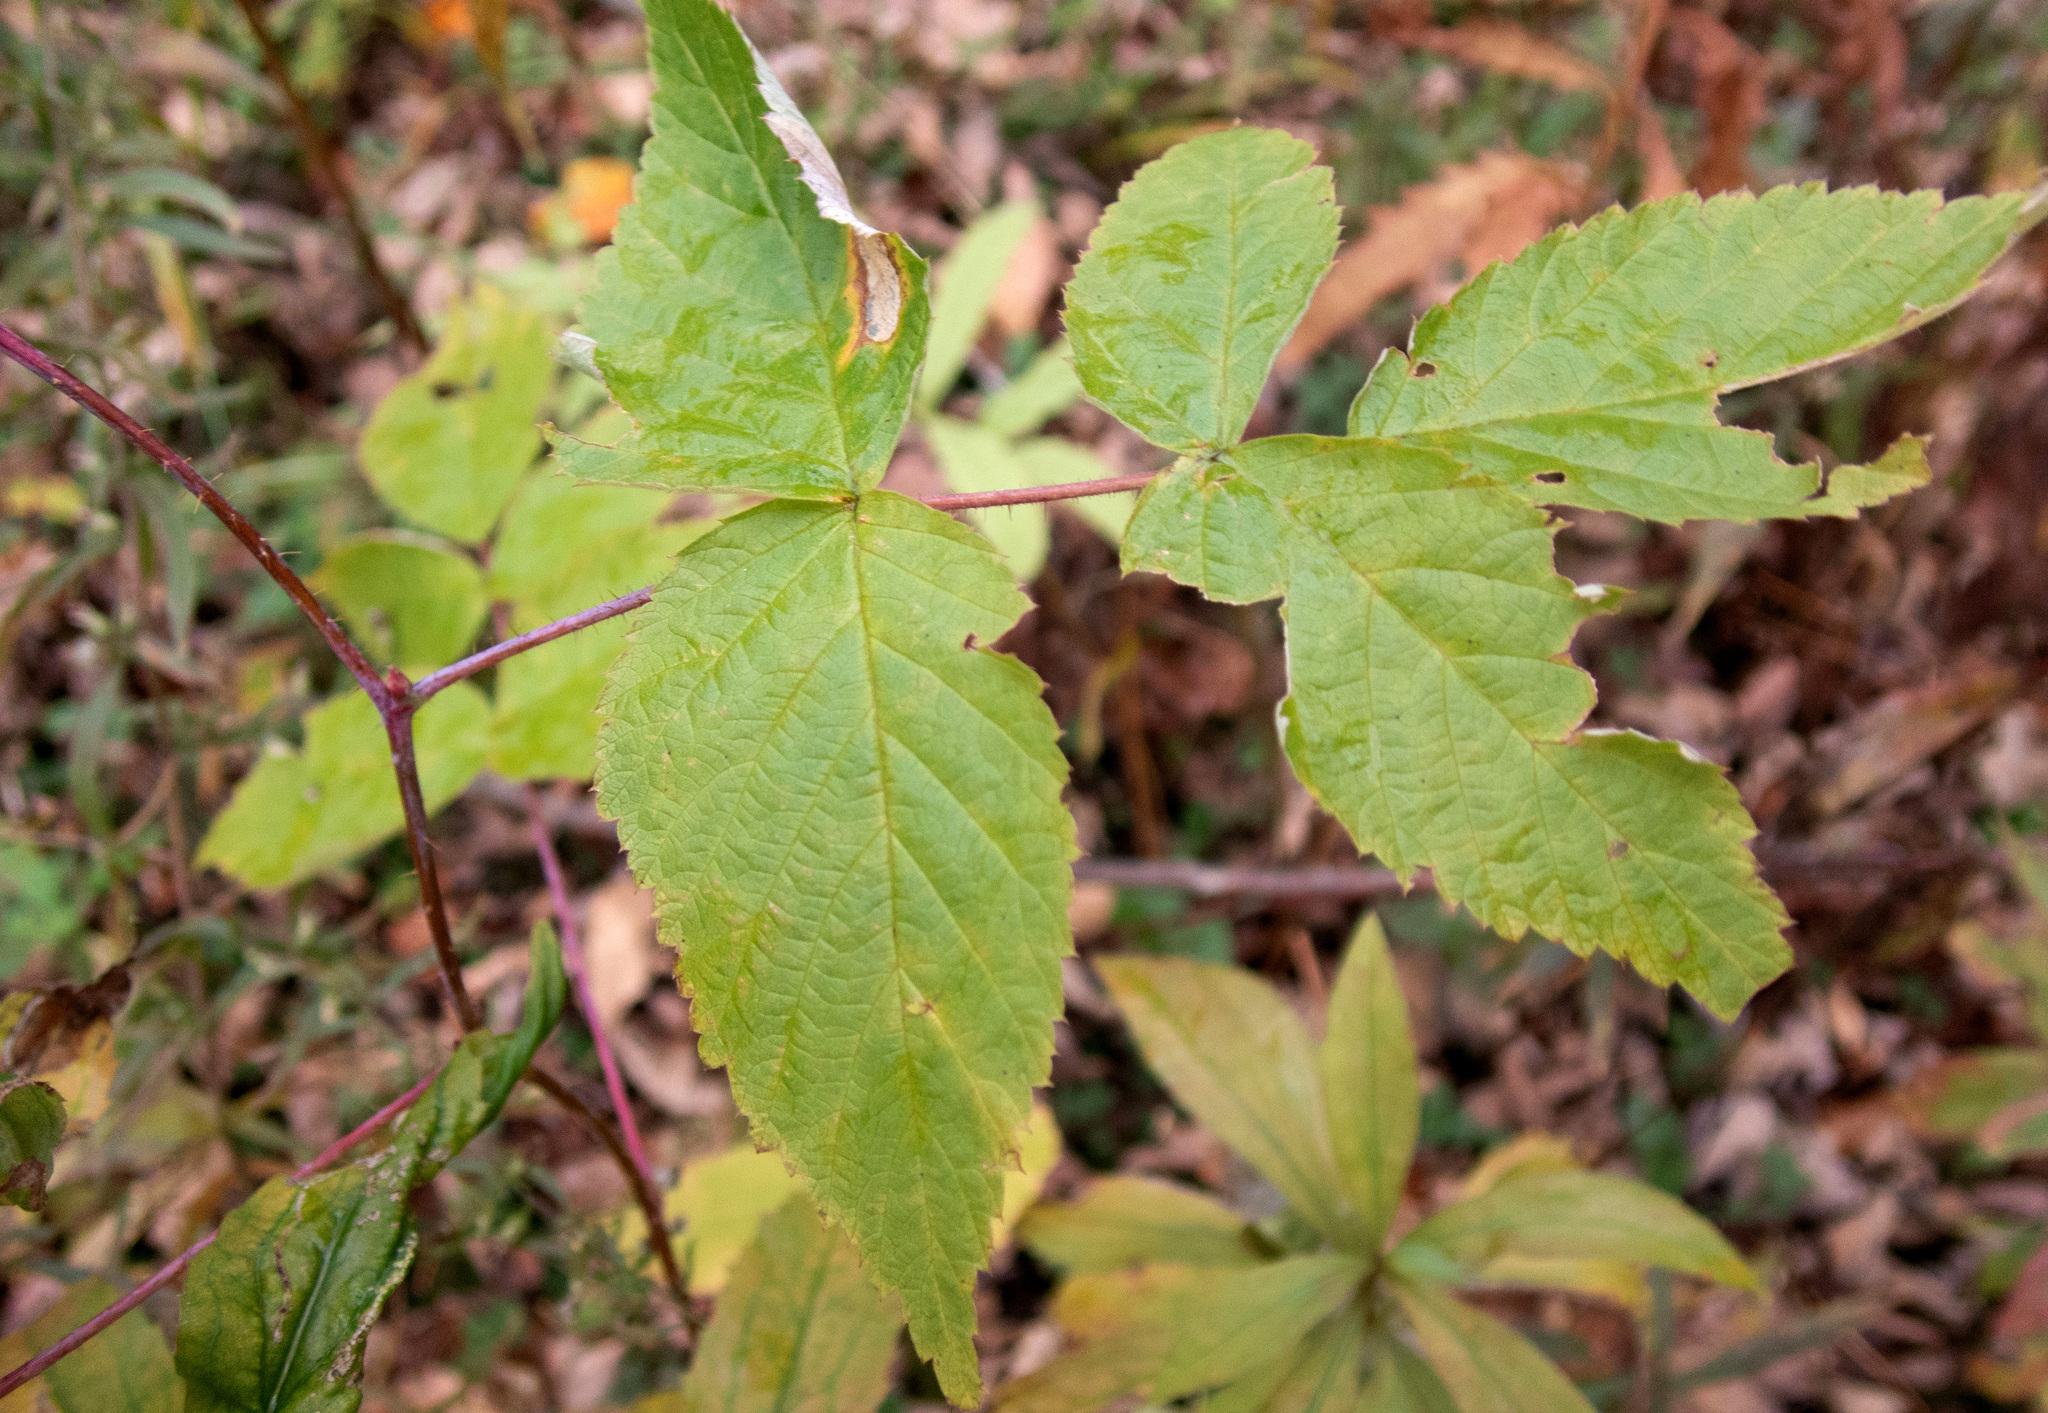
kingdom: Plantae
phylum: Tracheophyta
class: Magnoliopsida
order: Rosales
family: Rosaceae
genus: Rubus
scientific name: Rubus idaeus
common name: Raspberry
